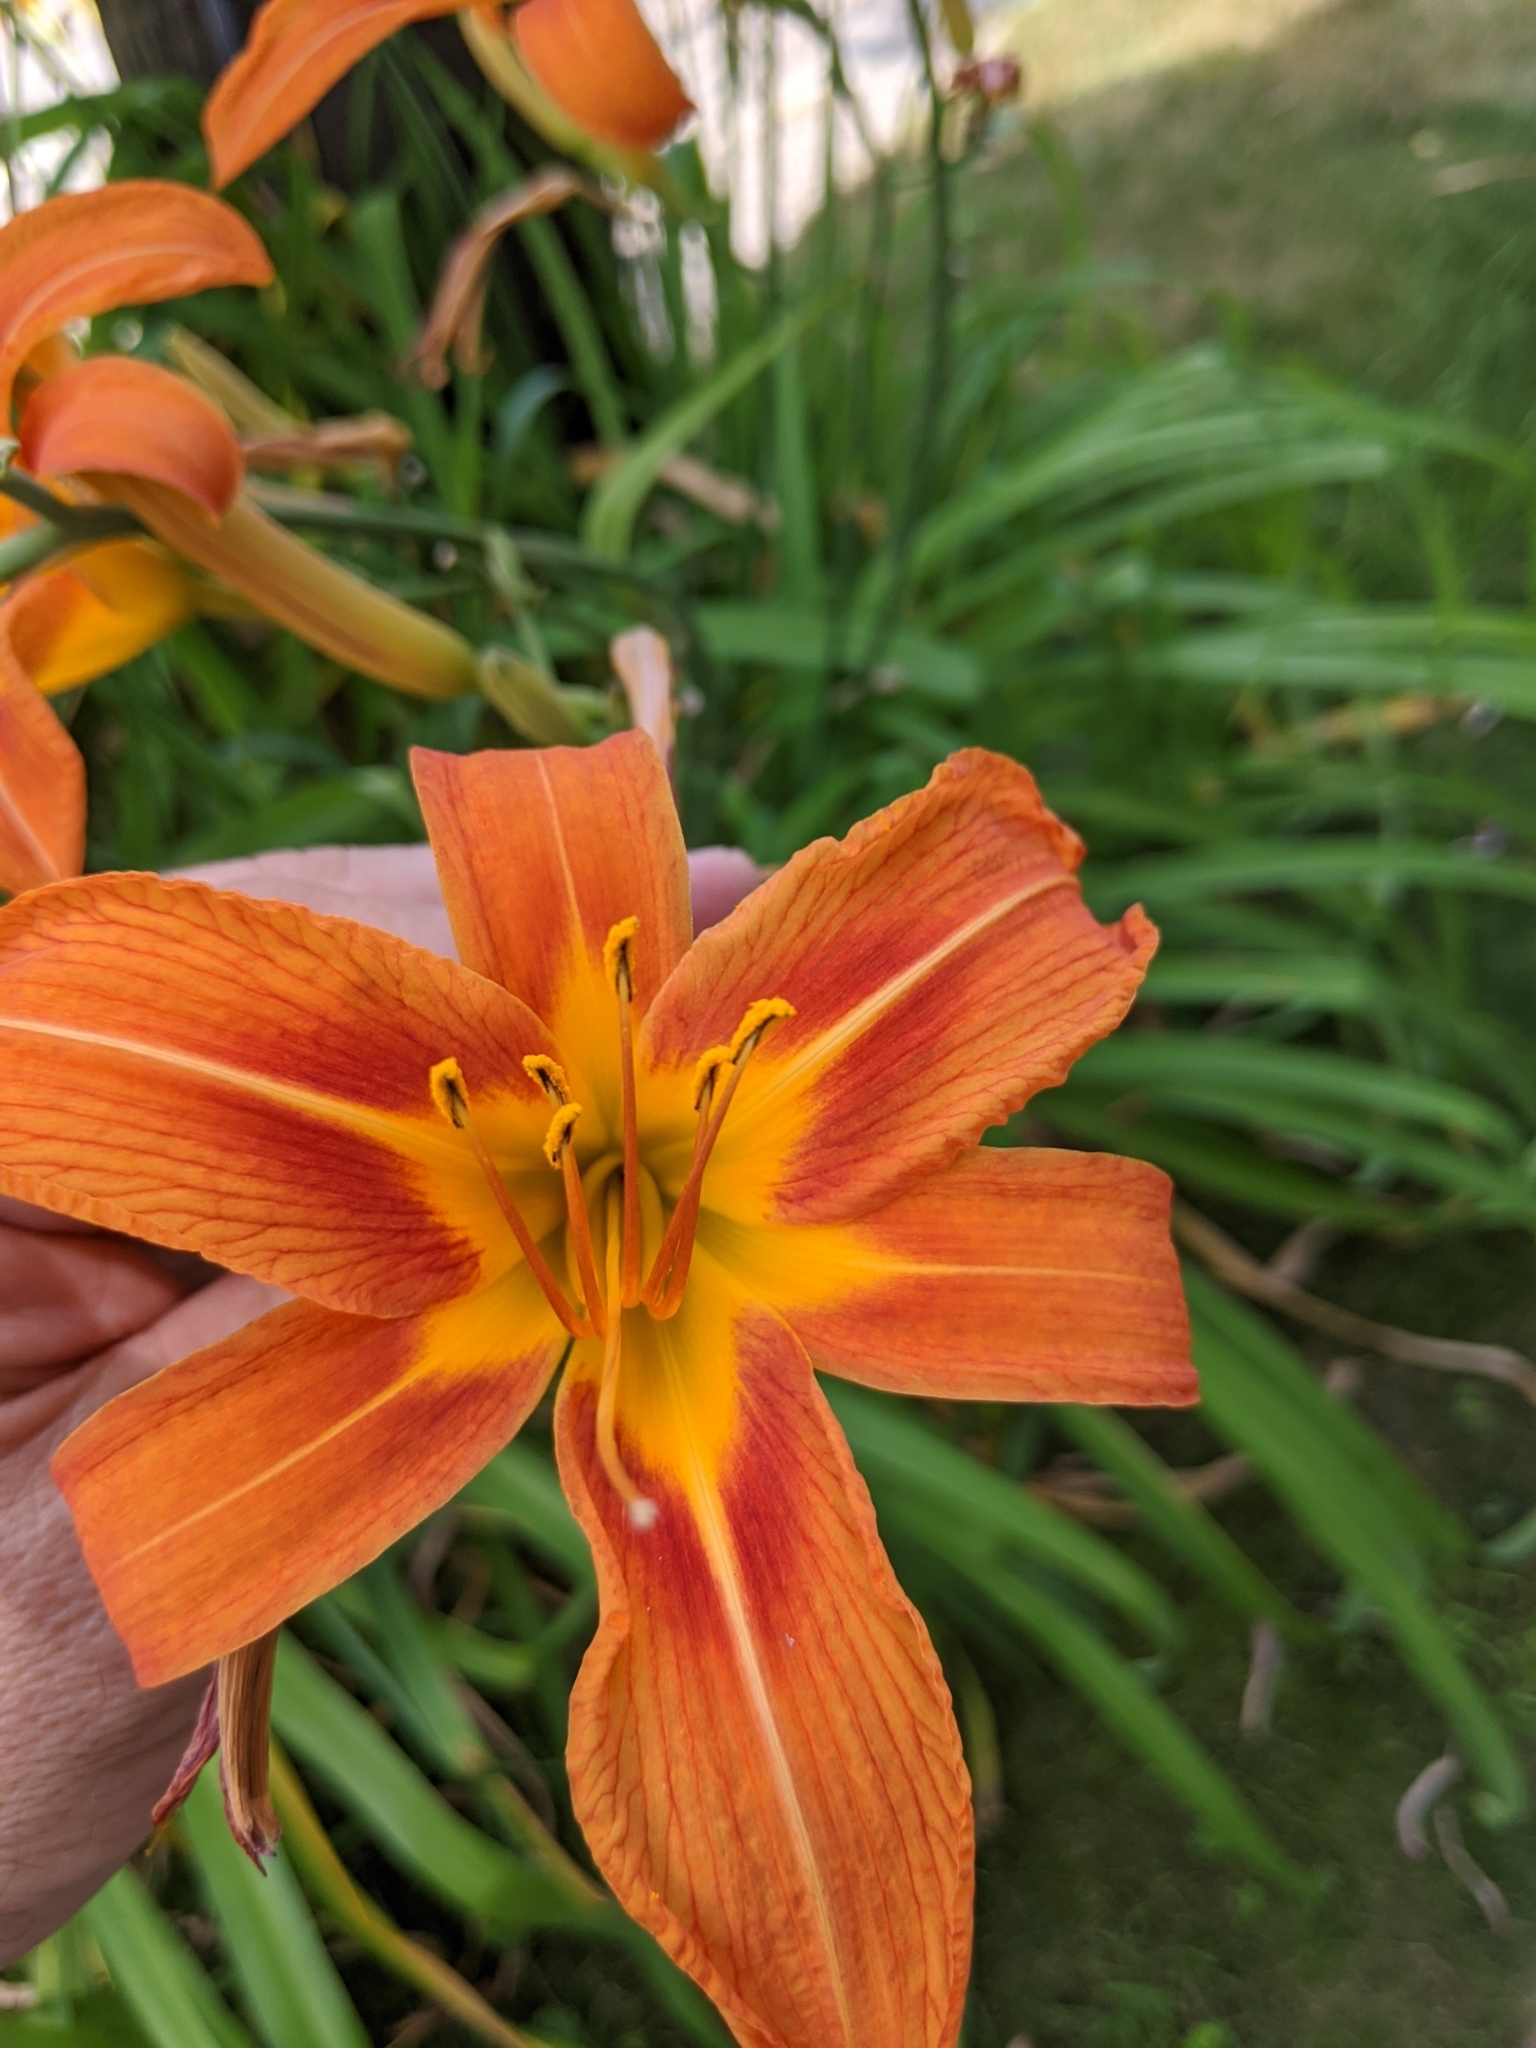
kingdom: Plantae
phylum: Tracheophyta
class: Liliopsida
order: Asparagales
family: Asphodelaceae
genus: Hemerocallis
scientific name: Hemerocallis fulva
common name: Orange day-lily
